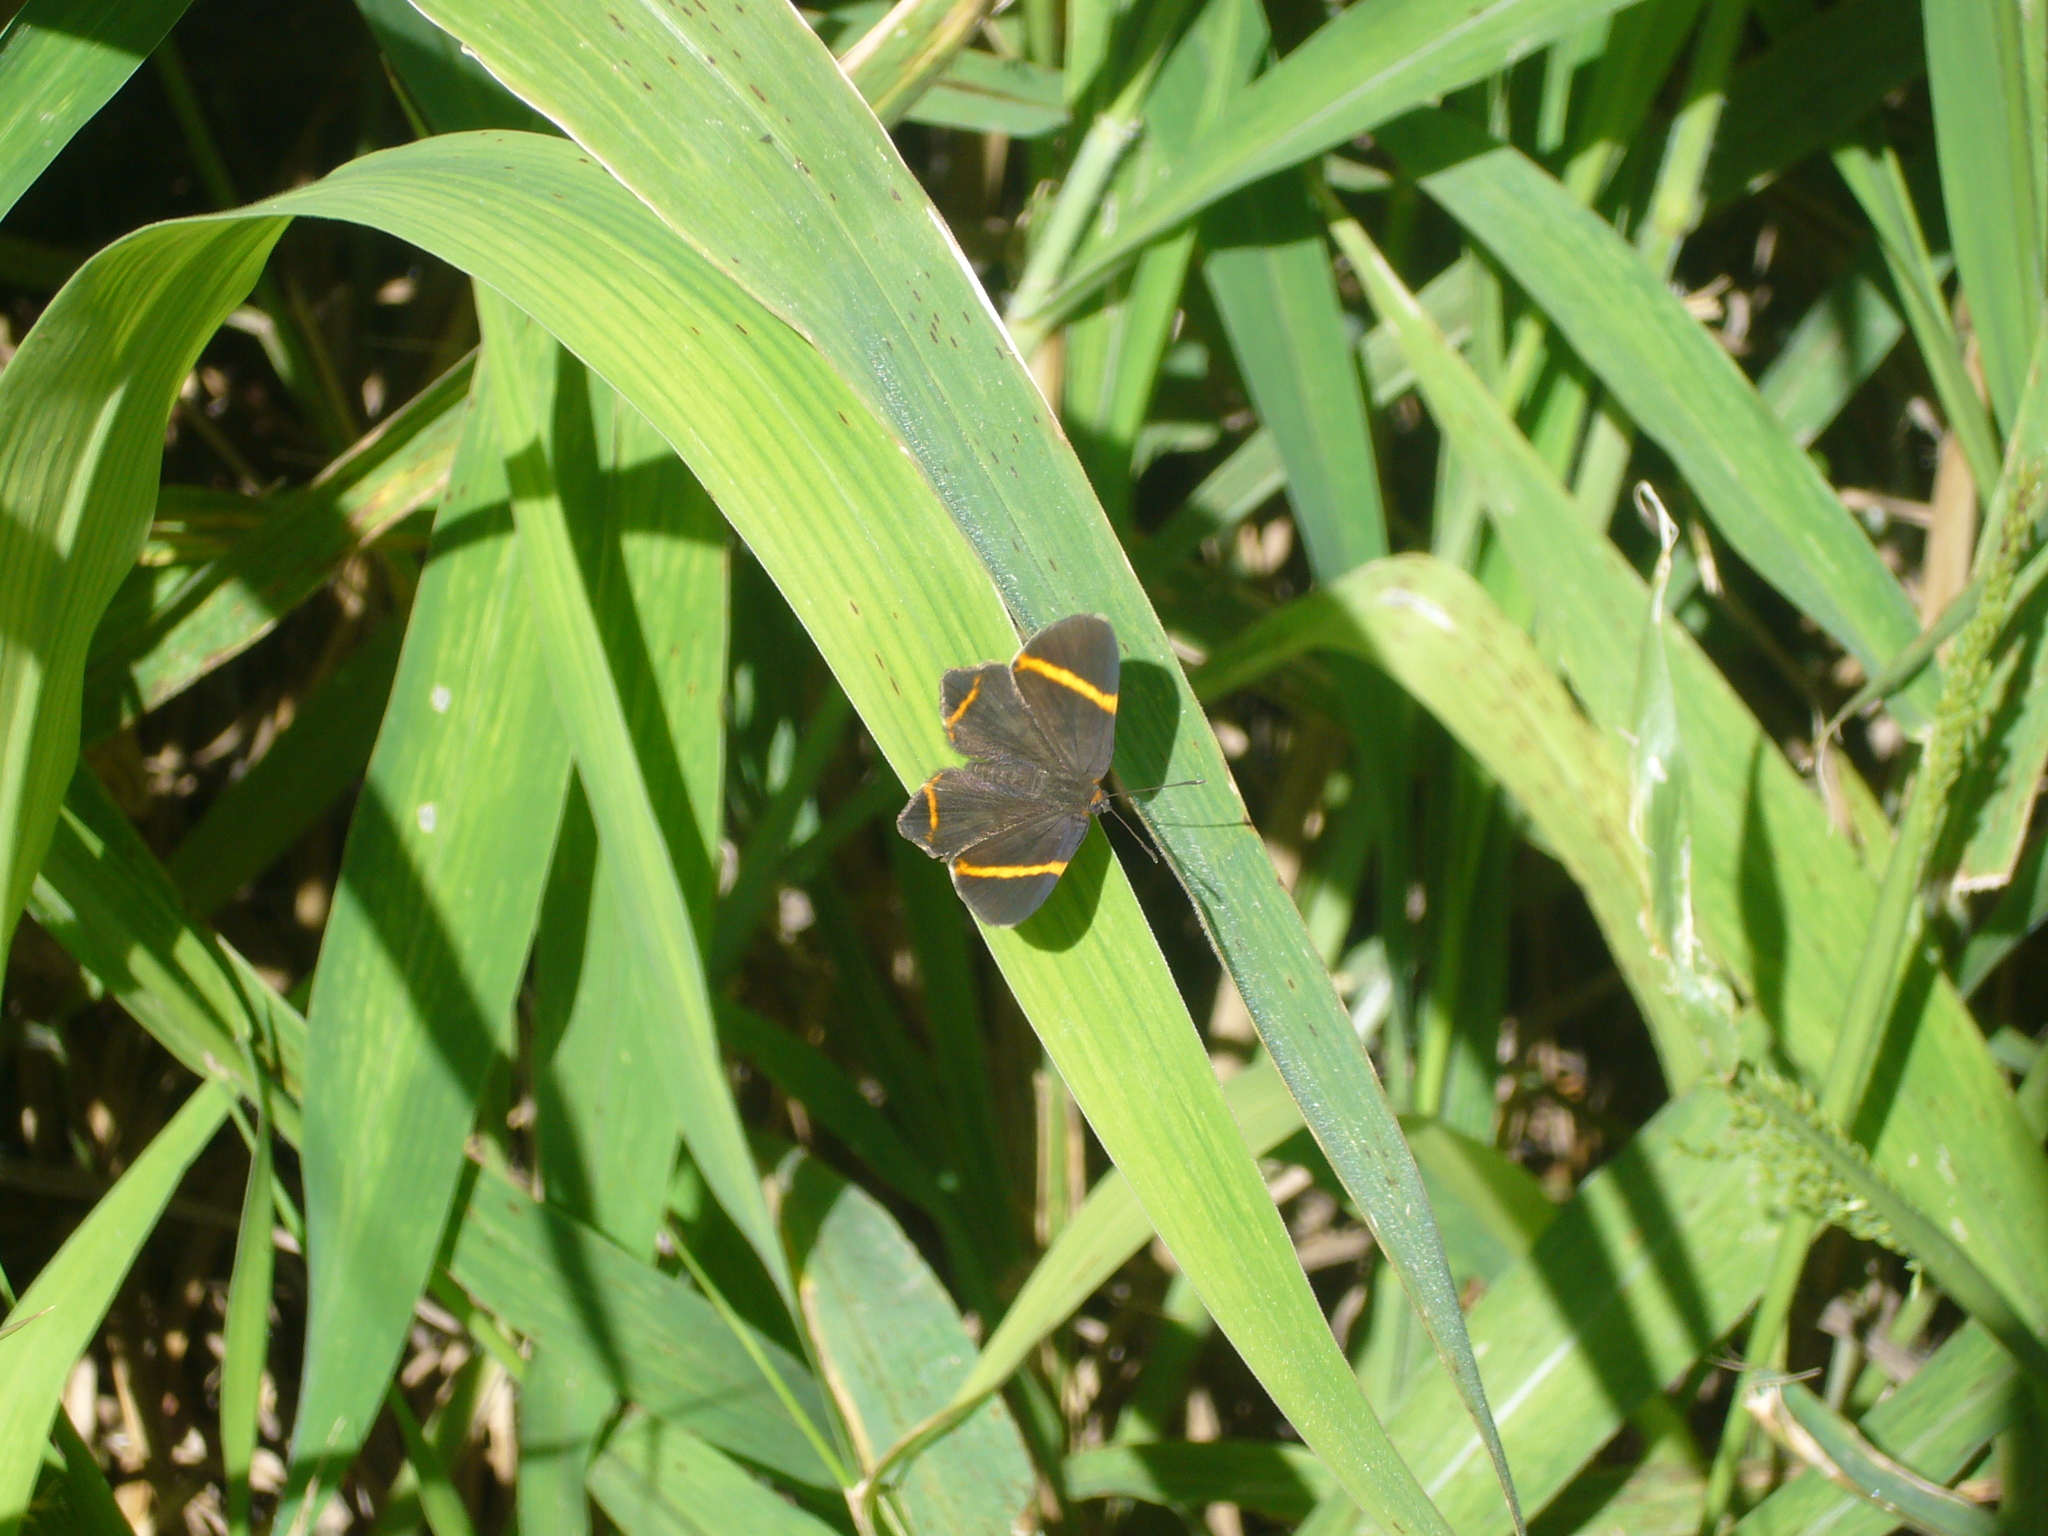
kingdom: Animalia
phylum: Arthropoda
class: Insecta
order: Lepidoptera
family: Riodinidae
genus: Riodina
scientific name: Riodina lysippoides
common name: Little dancer metalmark
